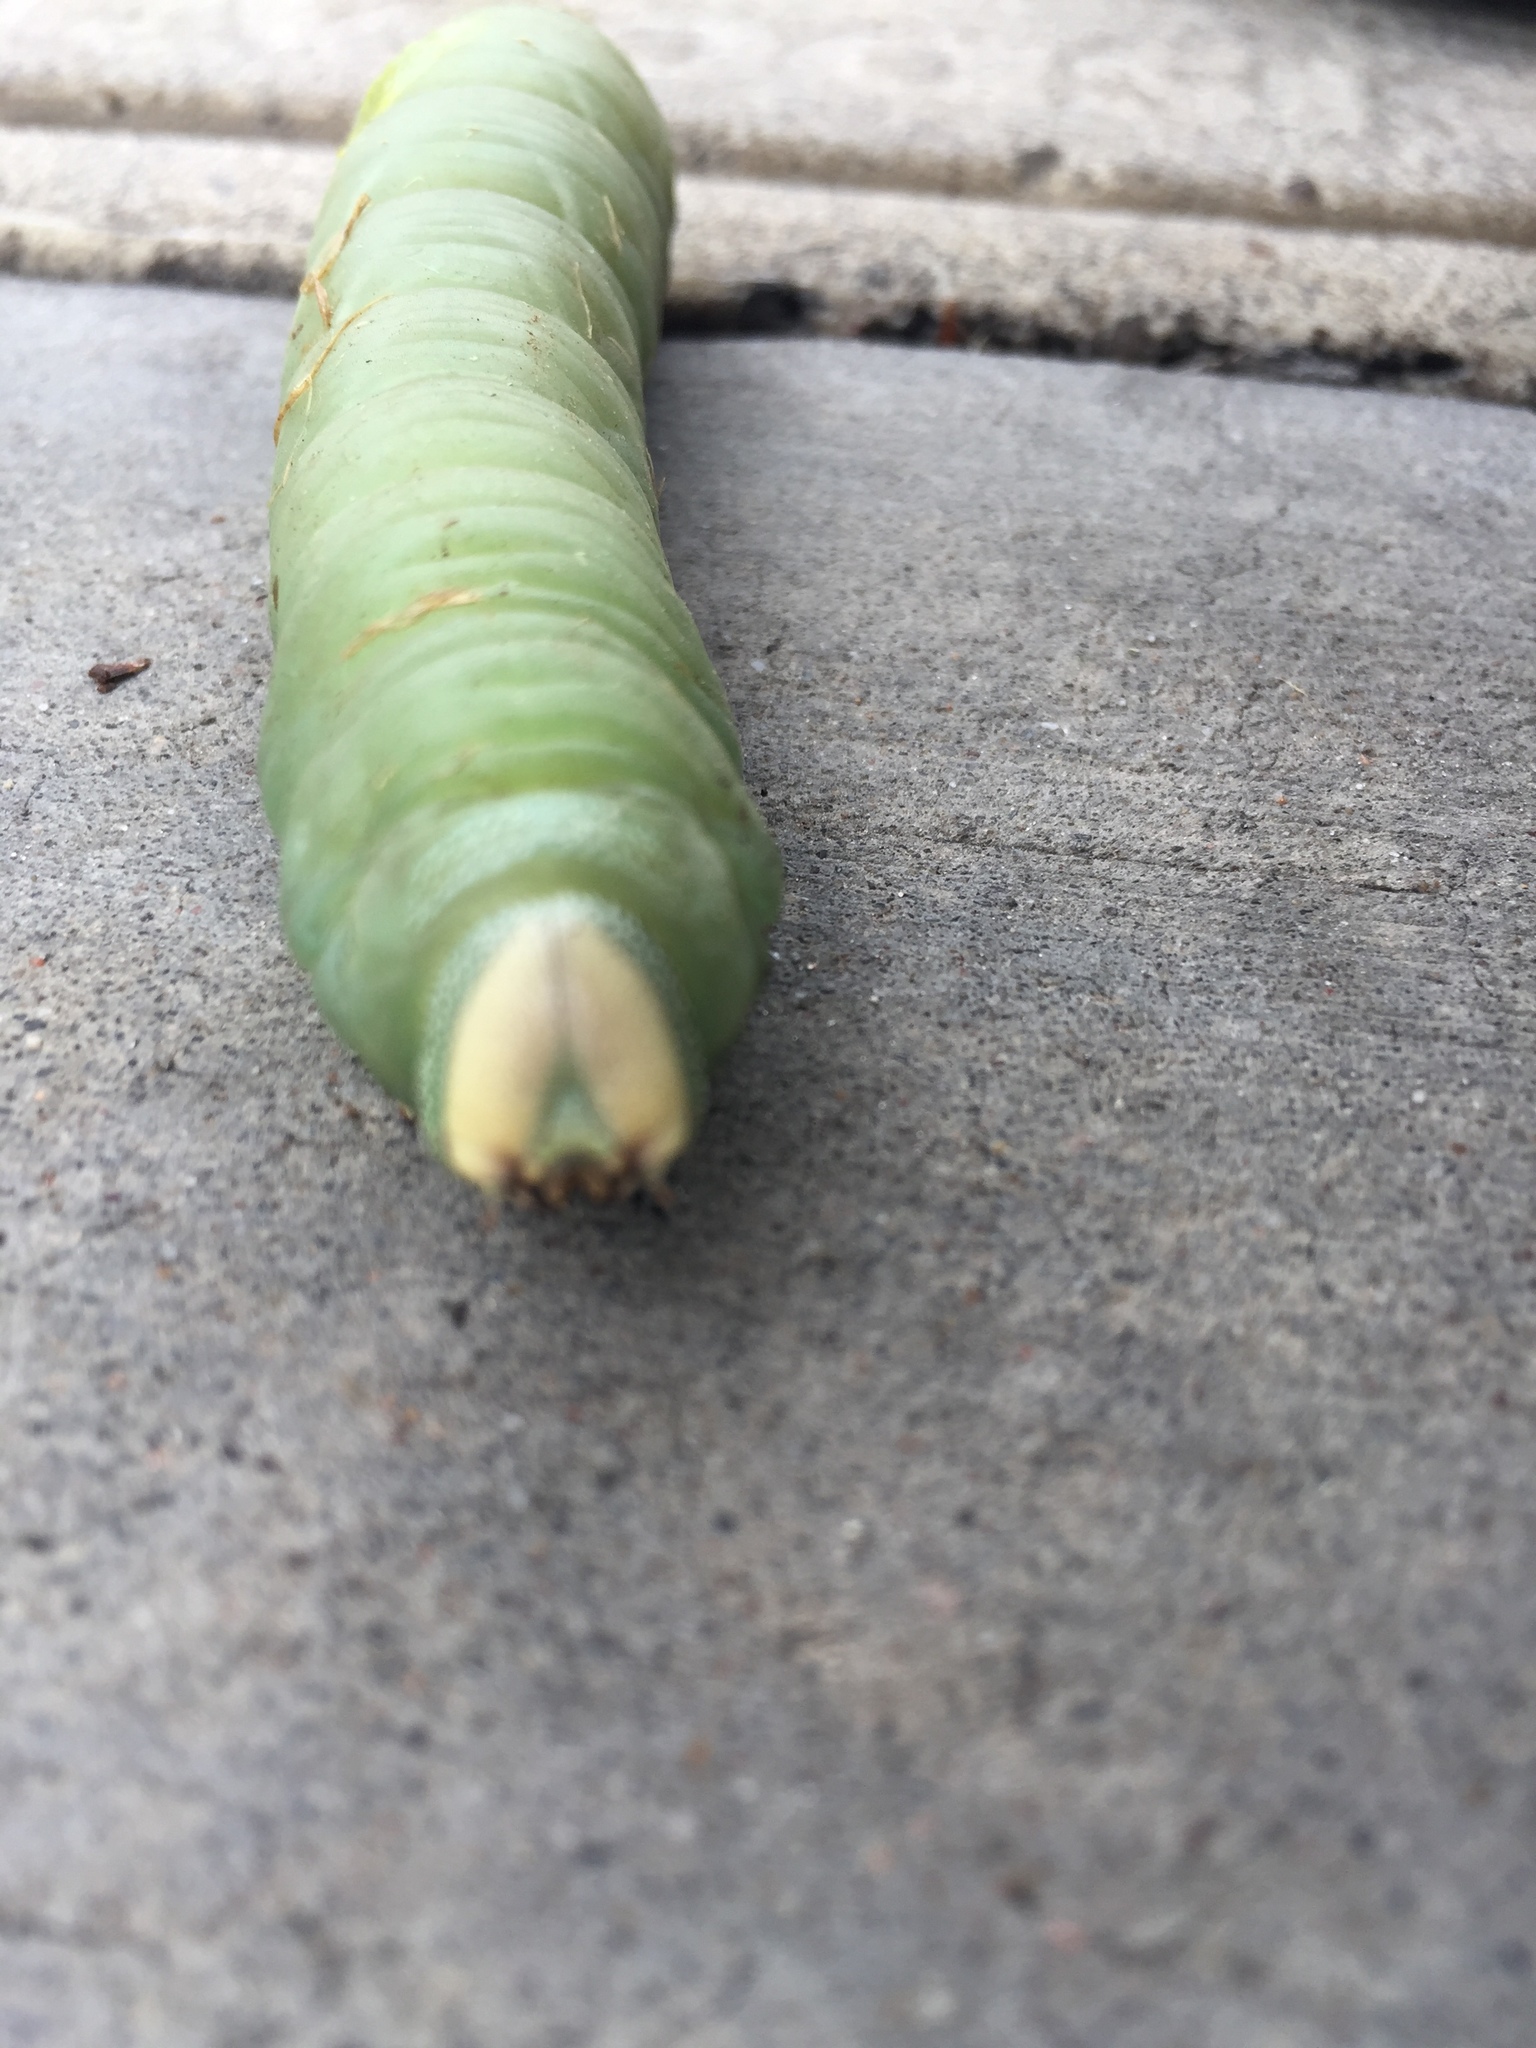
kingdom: Animalia
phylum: Arthropoda
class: Insecta
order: Lepidoptera
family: Sphingidae
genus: Pachysphinx
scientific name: Pachysphinx occidentalis
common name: Western poplar sphinx
